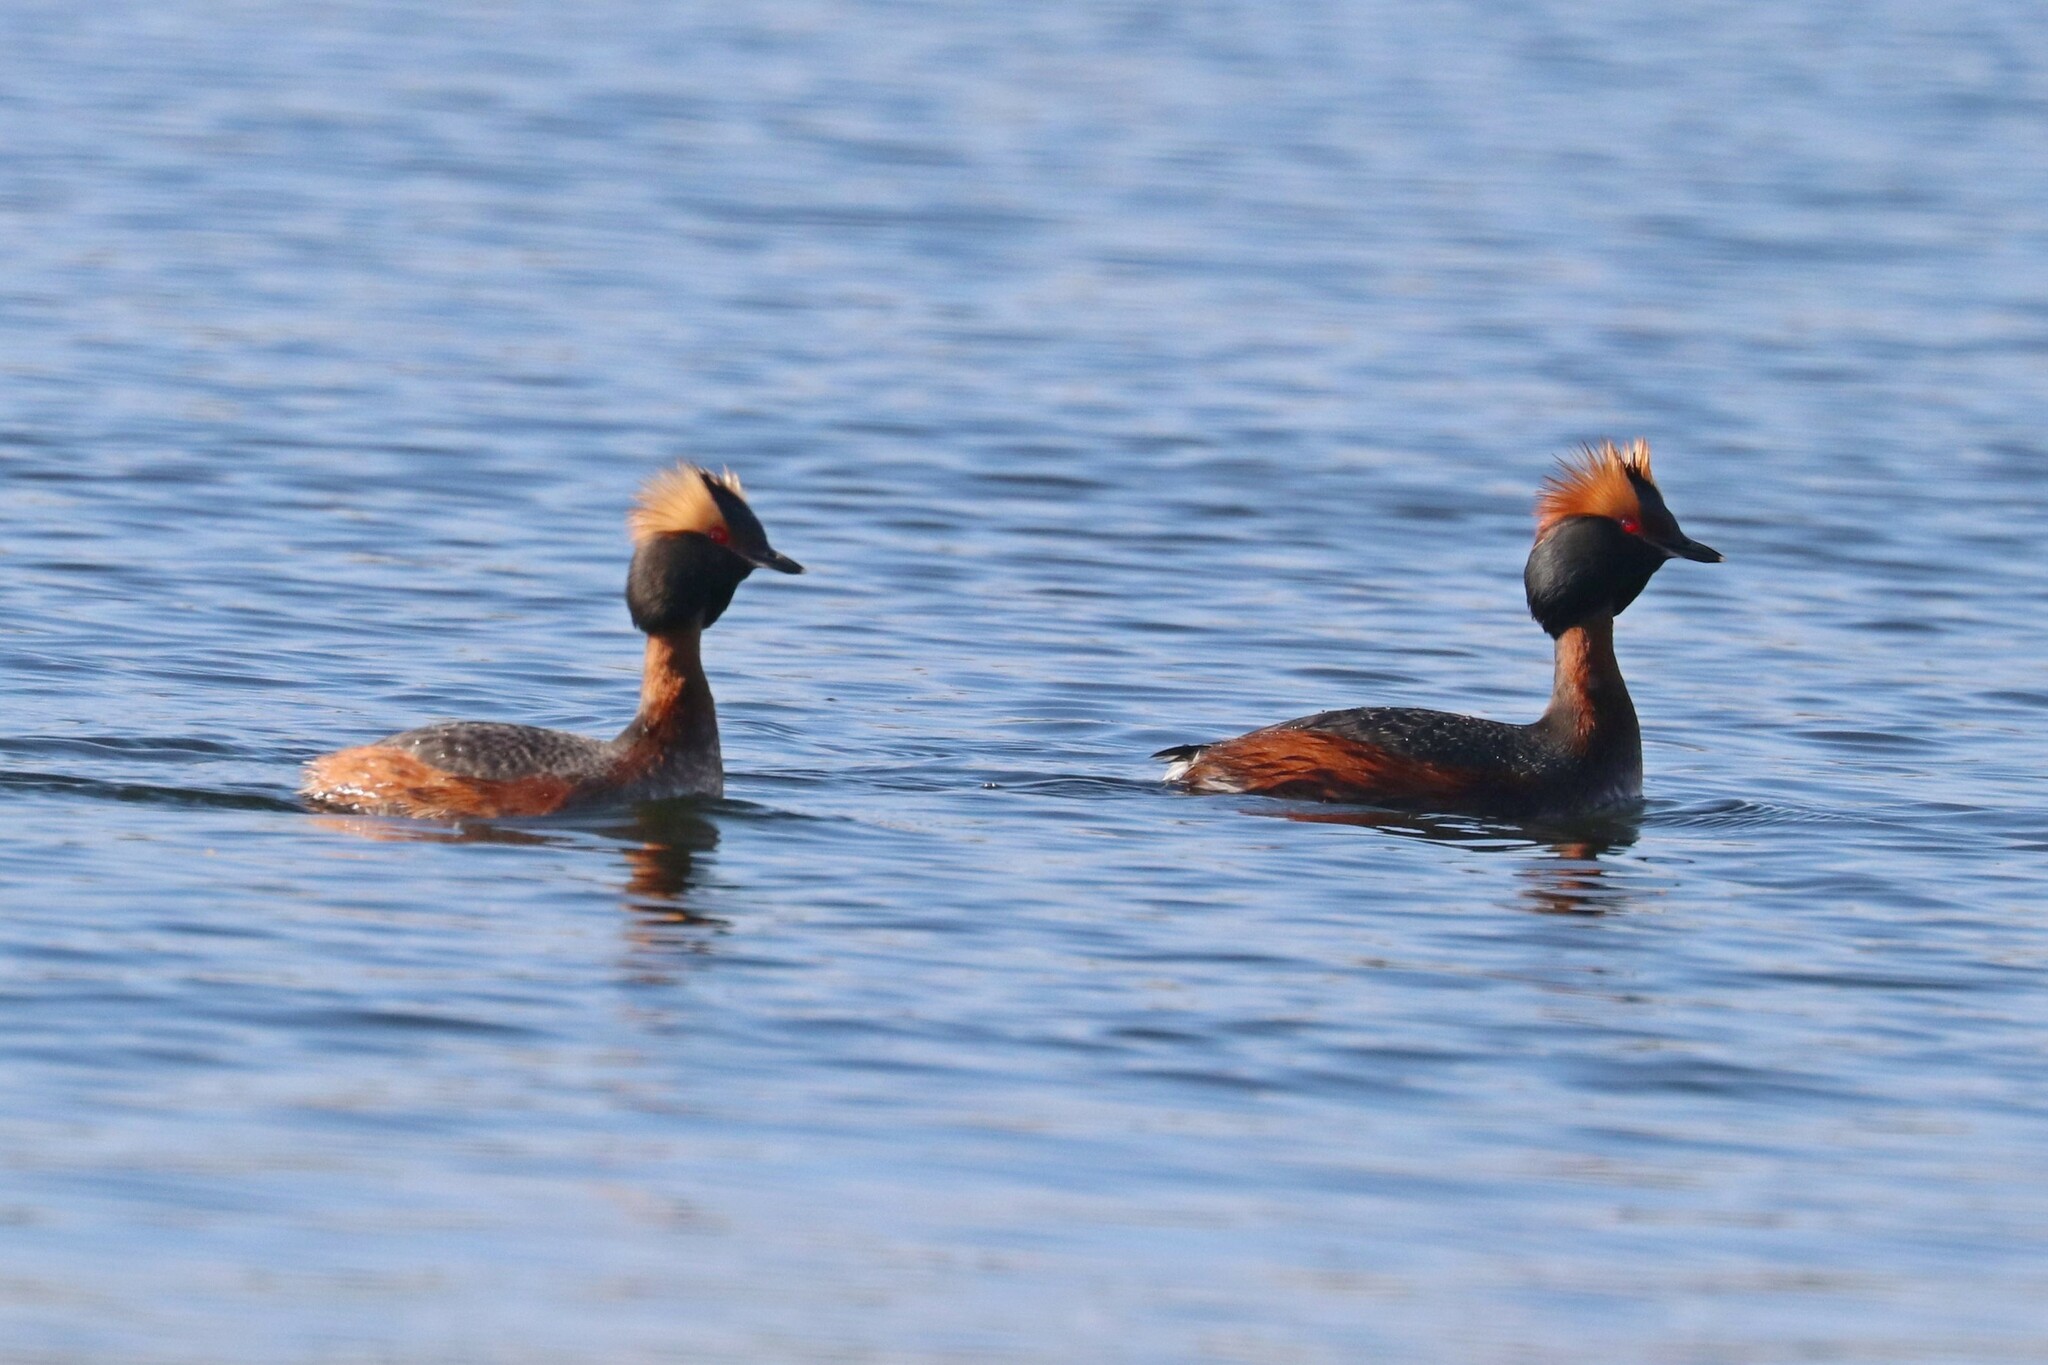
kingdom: Animalia
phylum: Chordata
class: Aves
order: Podicipediformes
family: Podicipedidae
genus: Podiceps
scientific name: Podiceps auritus
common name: Horned grebe
